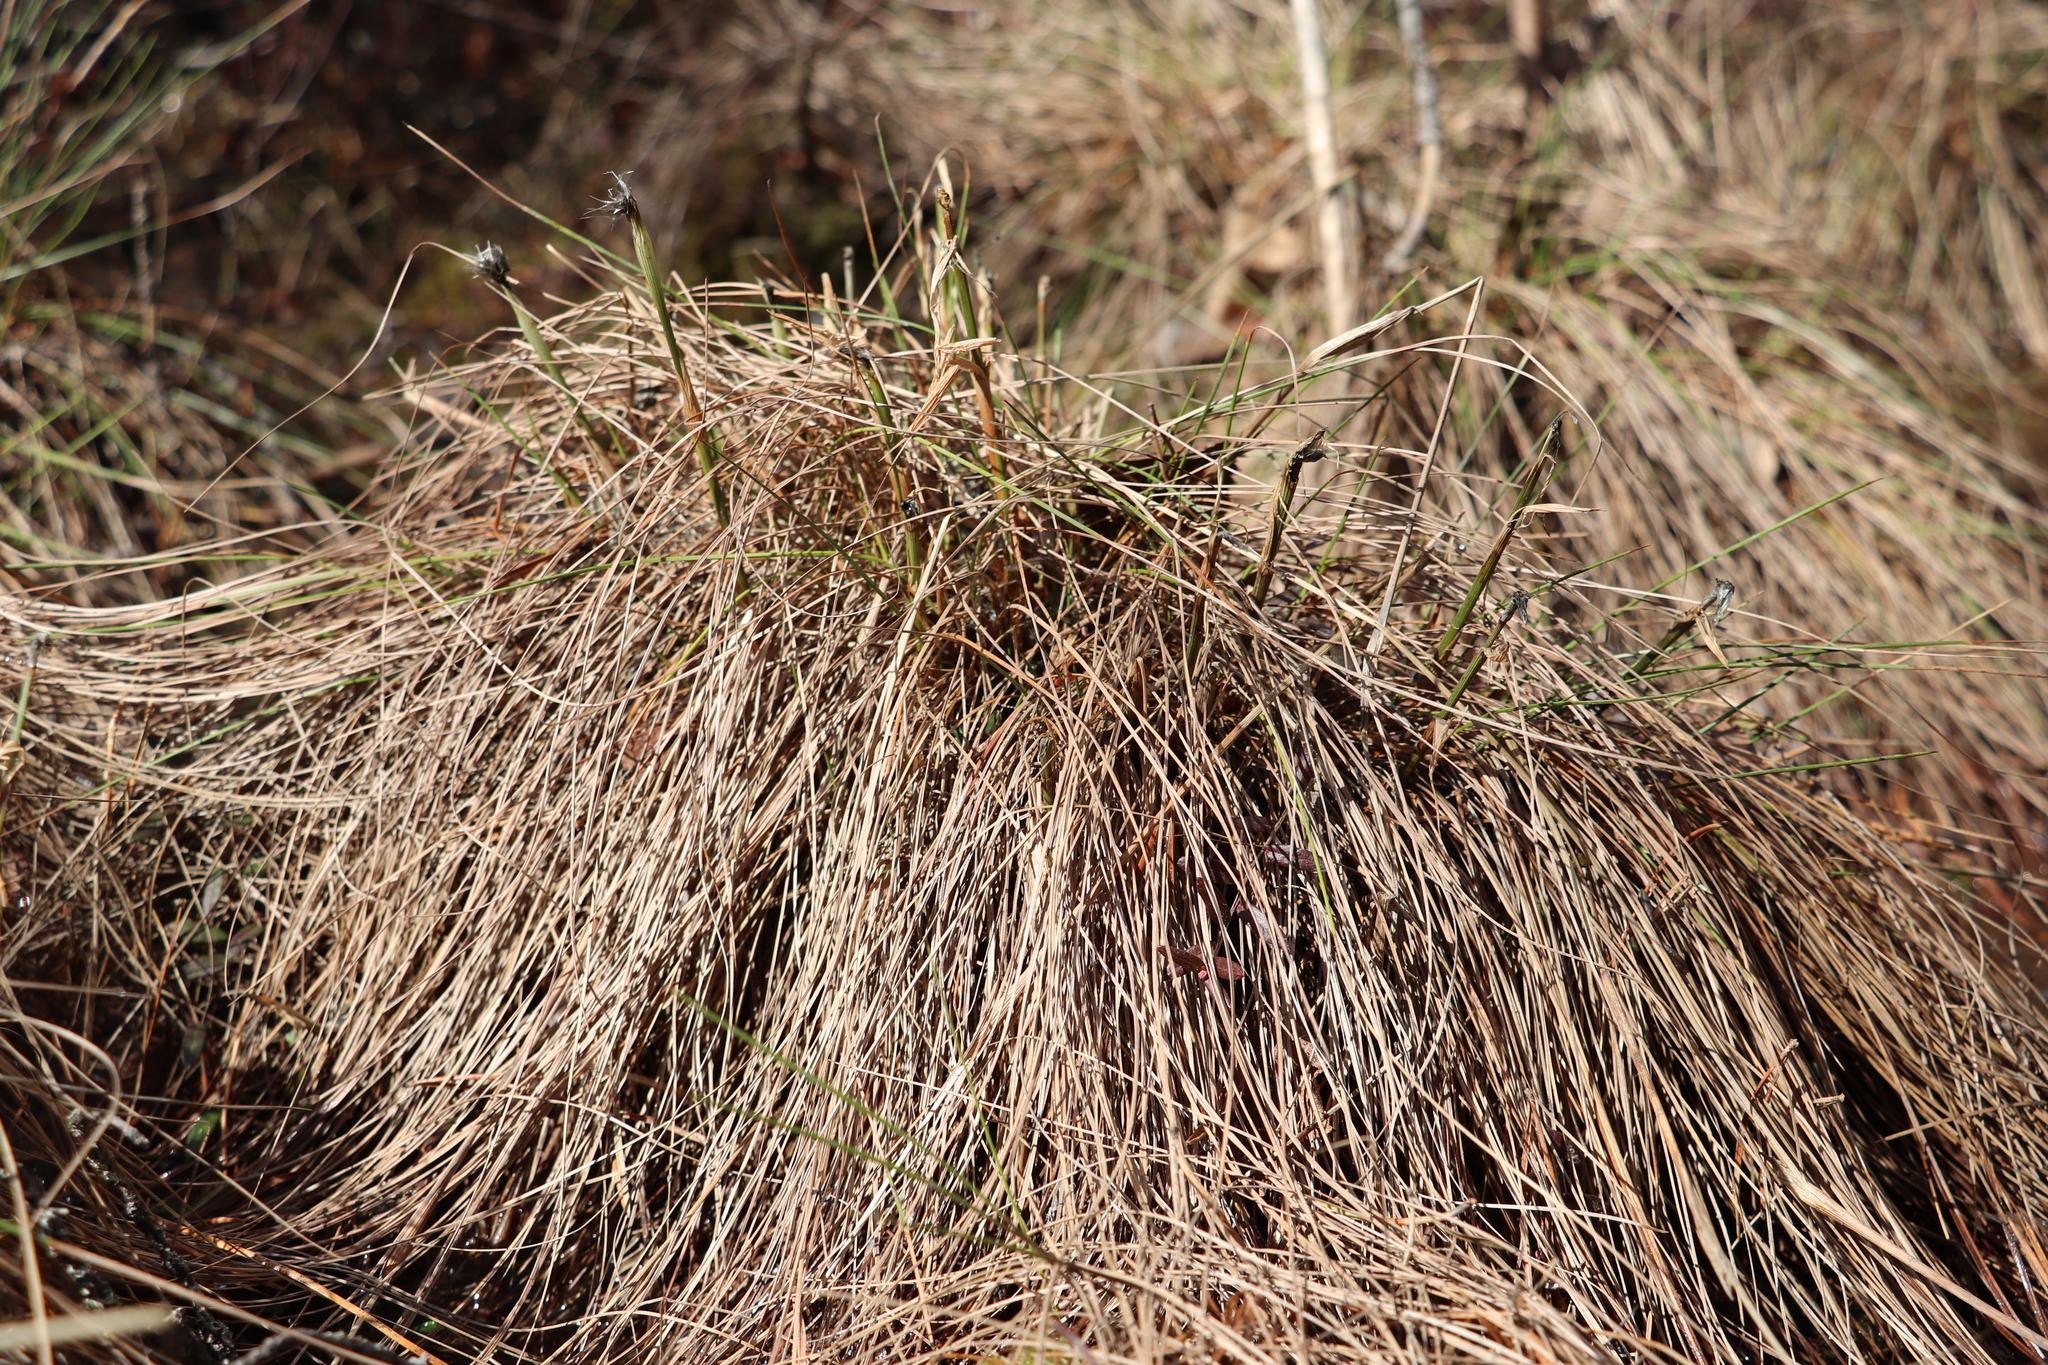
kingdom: Plantae
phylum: Tracheophyta
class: Liliopsida
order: Poales
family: Cyperaceae
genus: Eriophorum
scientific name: Eriophorum vaginatum
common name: Hare's-tail cottongrass
